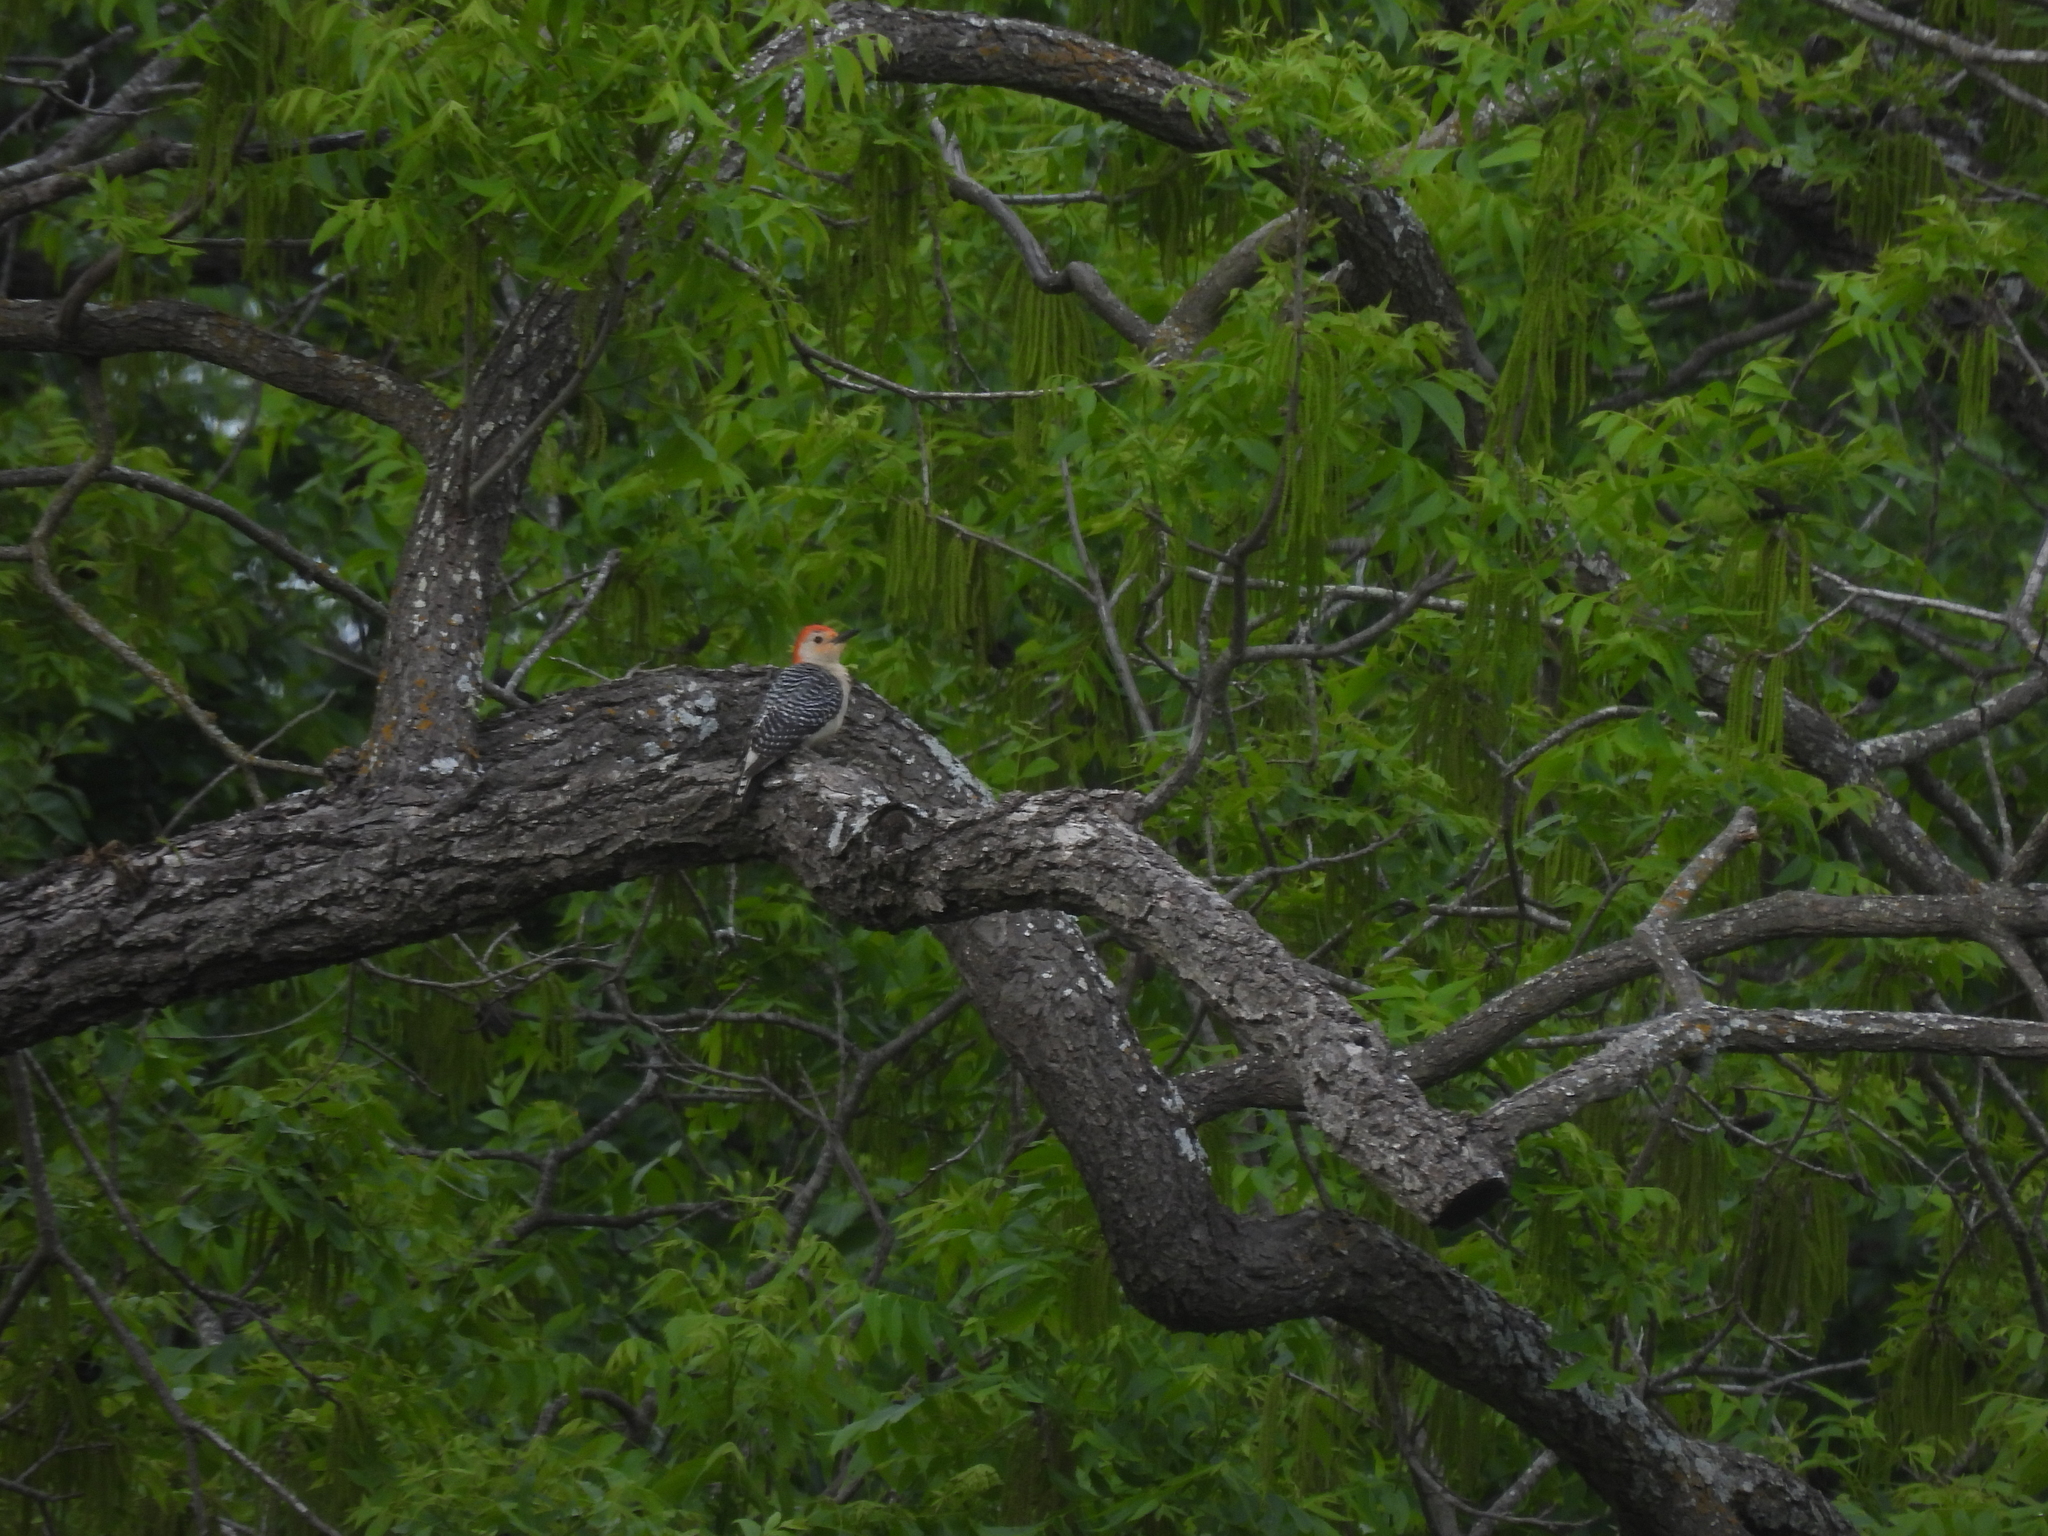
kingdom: Animalia
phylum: Chordata
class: Aves
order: Piciformes
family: Picidae
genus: Melanerpes
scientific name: Melanerpes carolinus
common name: Red-bellied woodpecker
